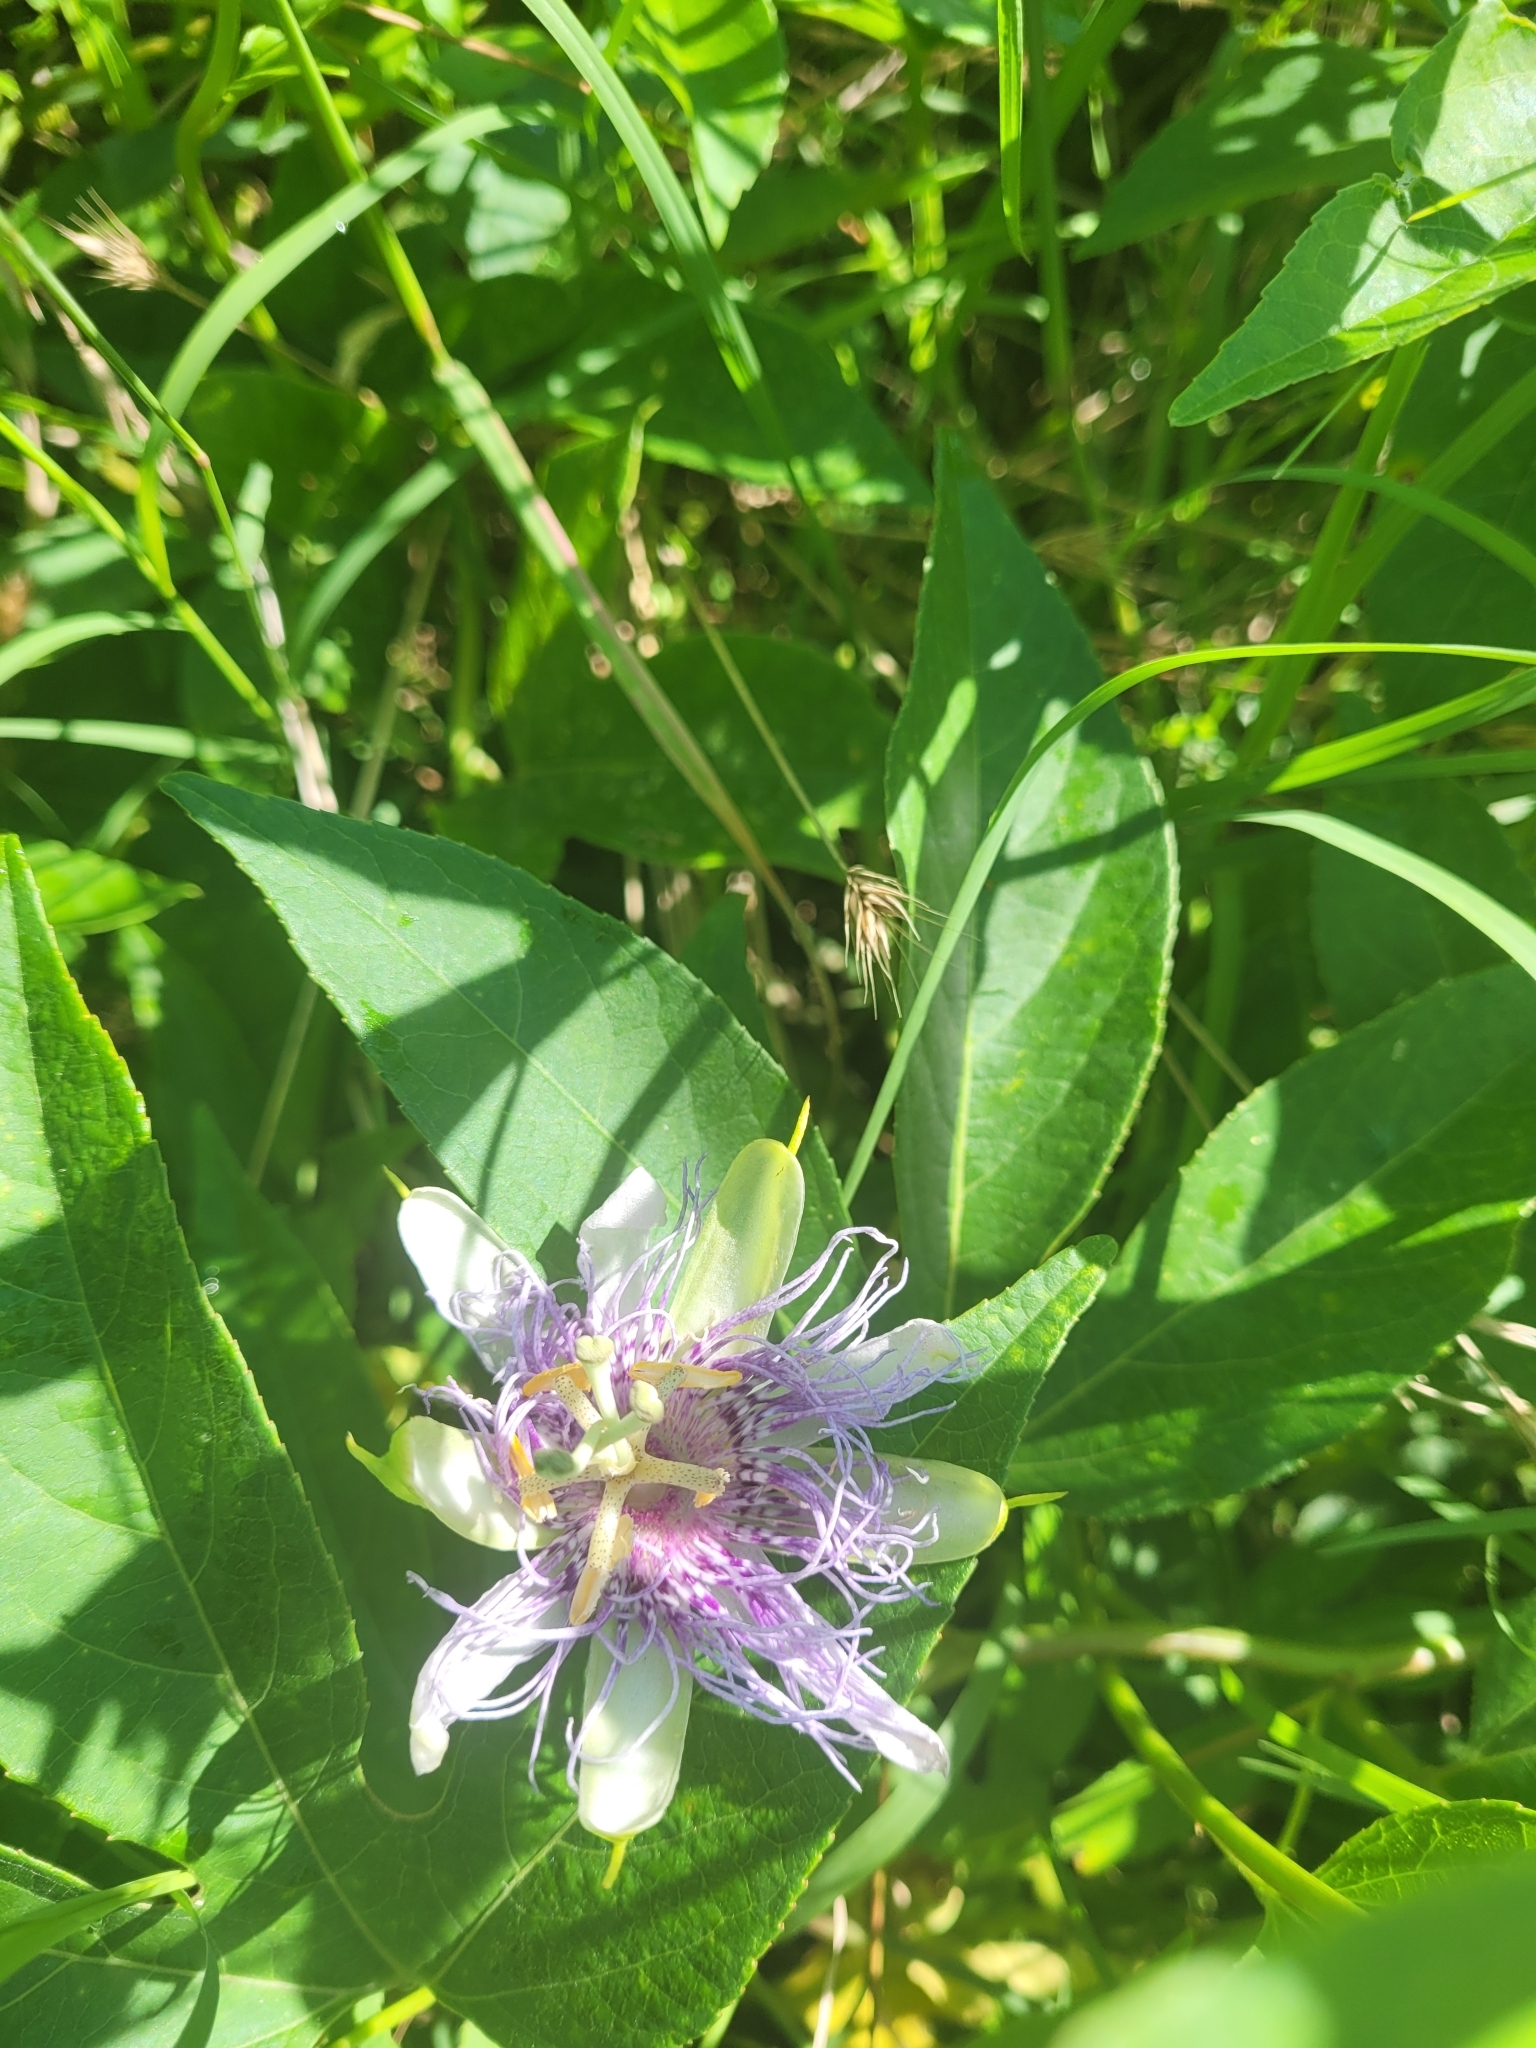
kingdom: Plantae
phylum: Tracheophyta
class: Magnoliopsida
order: Malpighiales
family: Passifloraceae
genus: Passiflora
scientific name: Passiflora incarnata
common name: Apricot-vine
